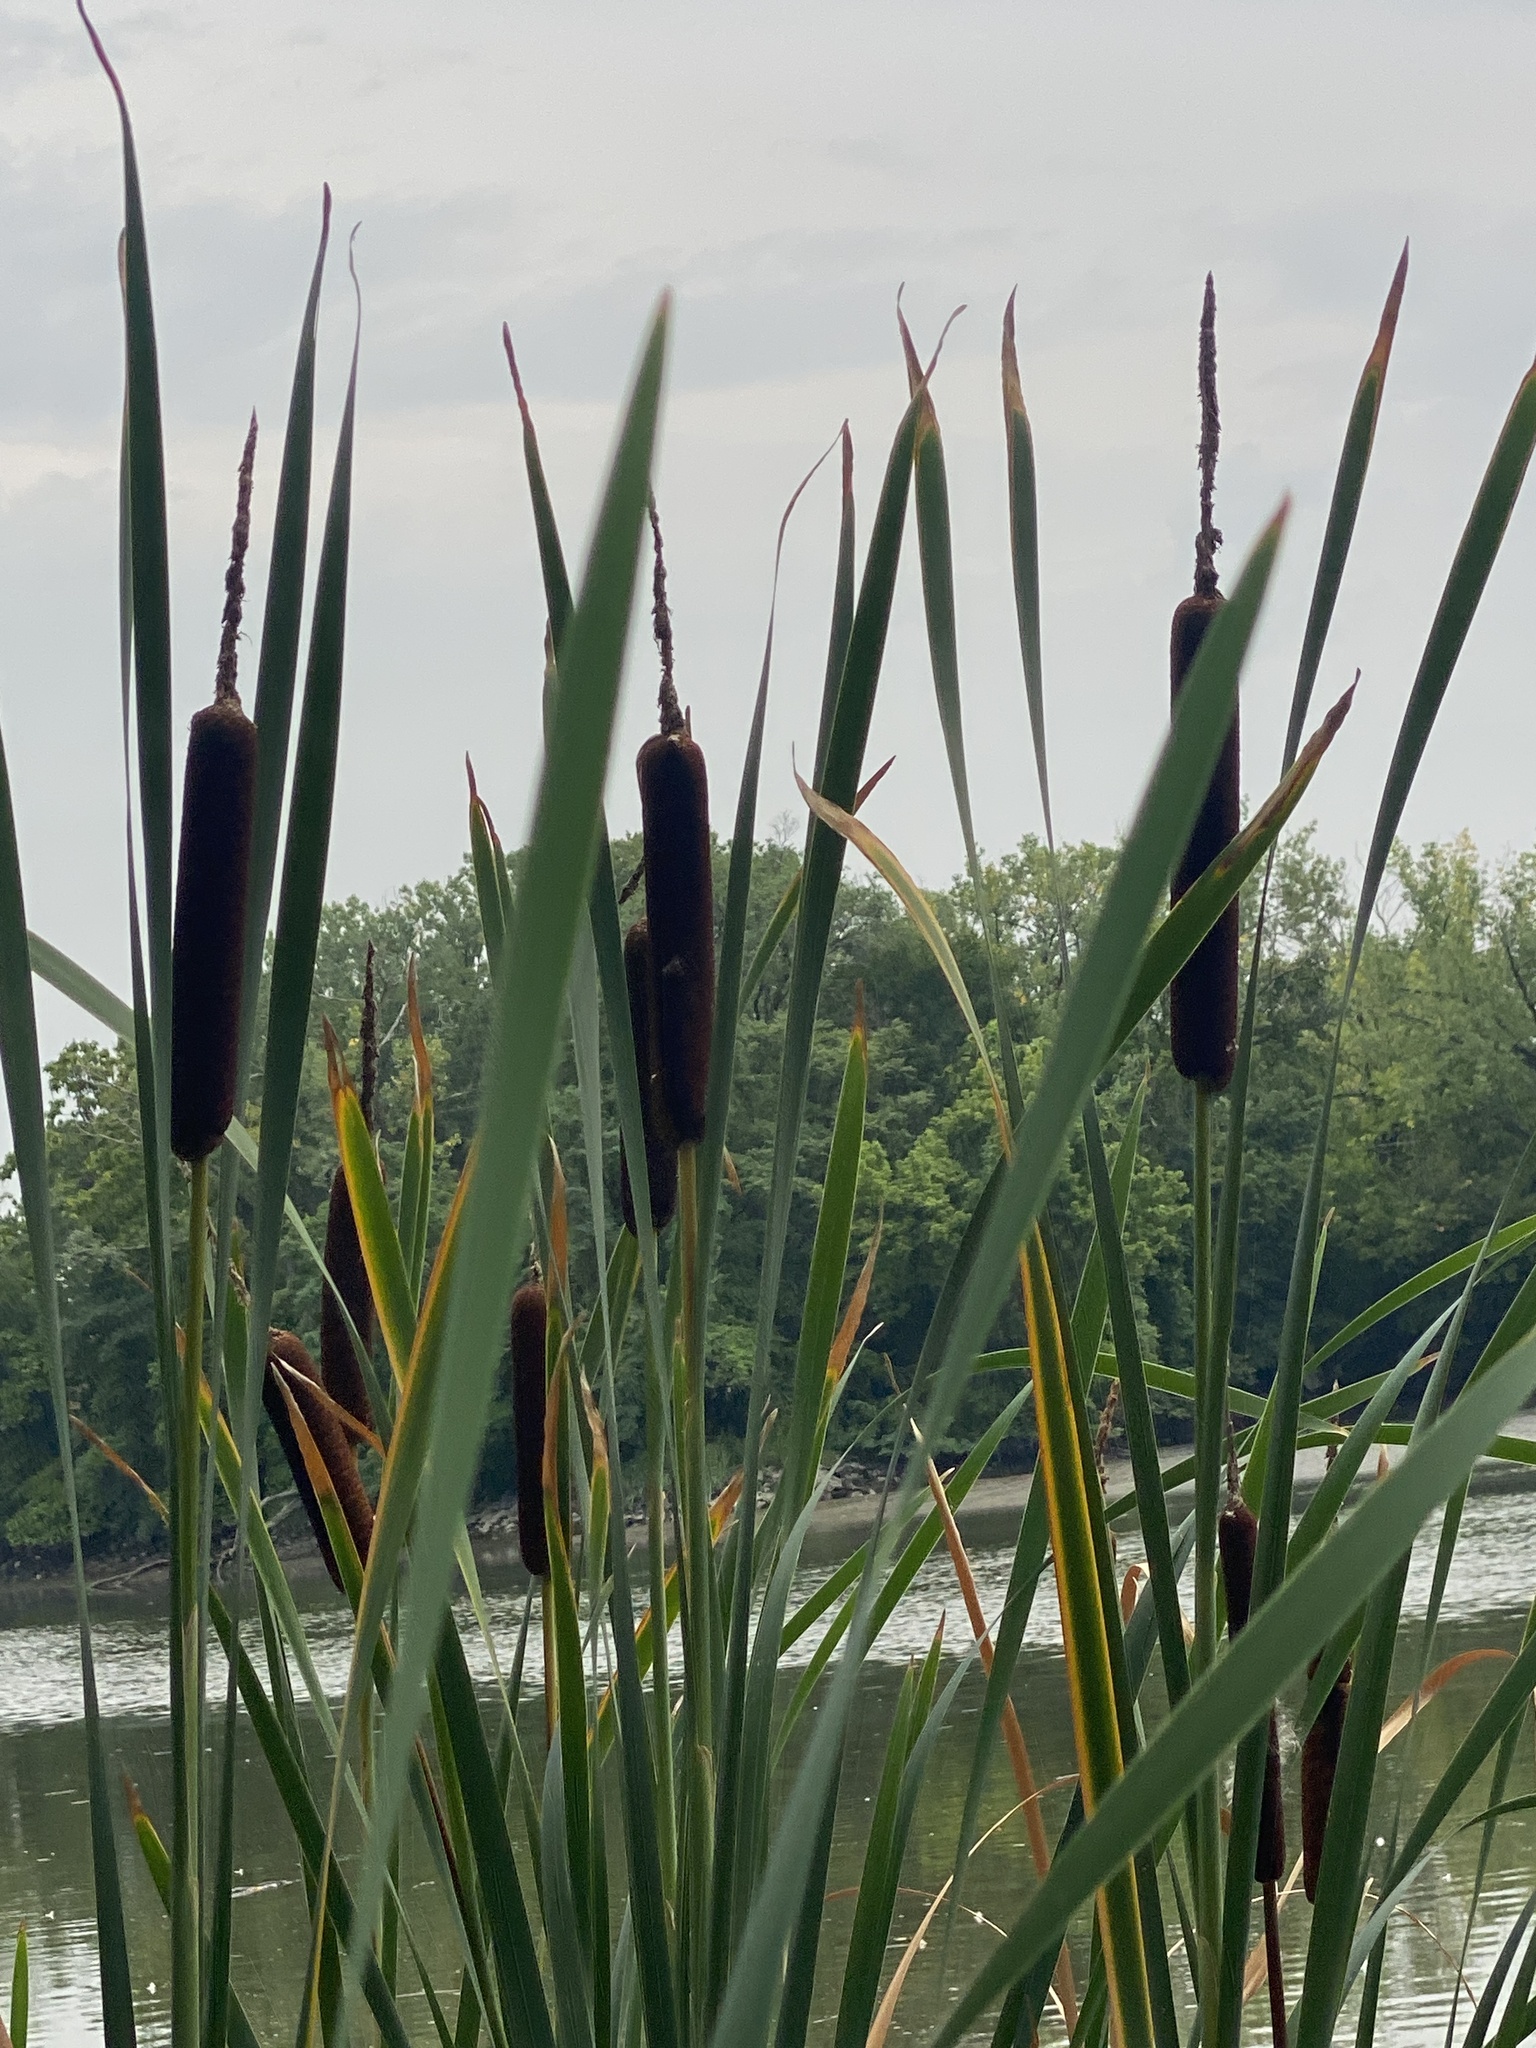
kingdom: Plantae
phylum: Tracheophyta
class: Liliopsida
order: Poales
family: Typhaceae
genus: Typha
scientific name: Typha latifolia
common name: Broadleaf cattail
